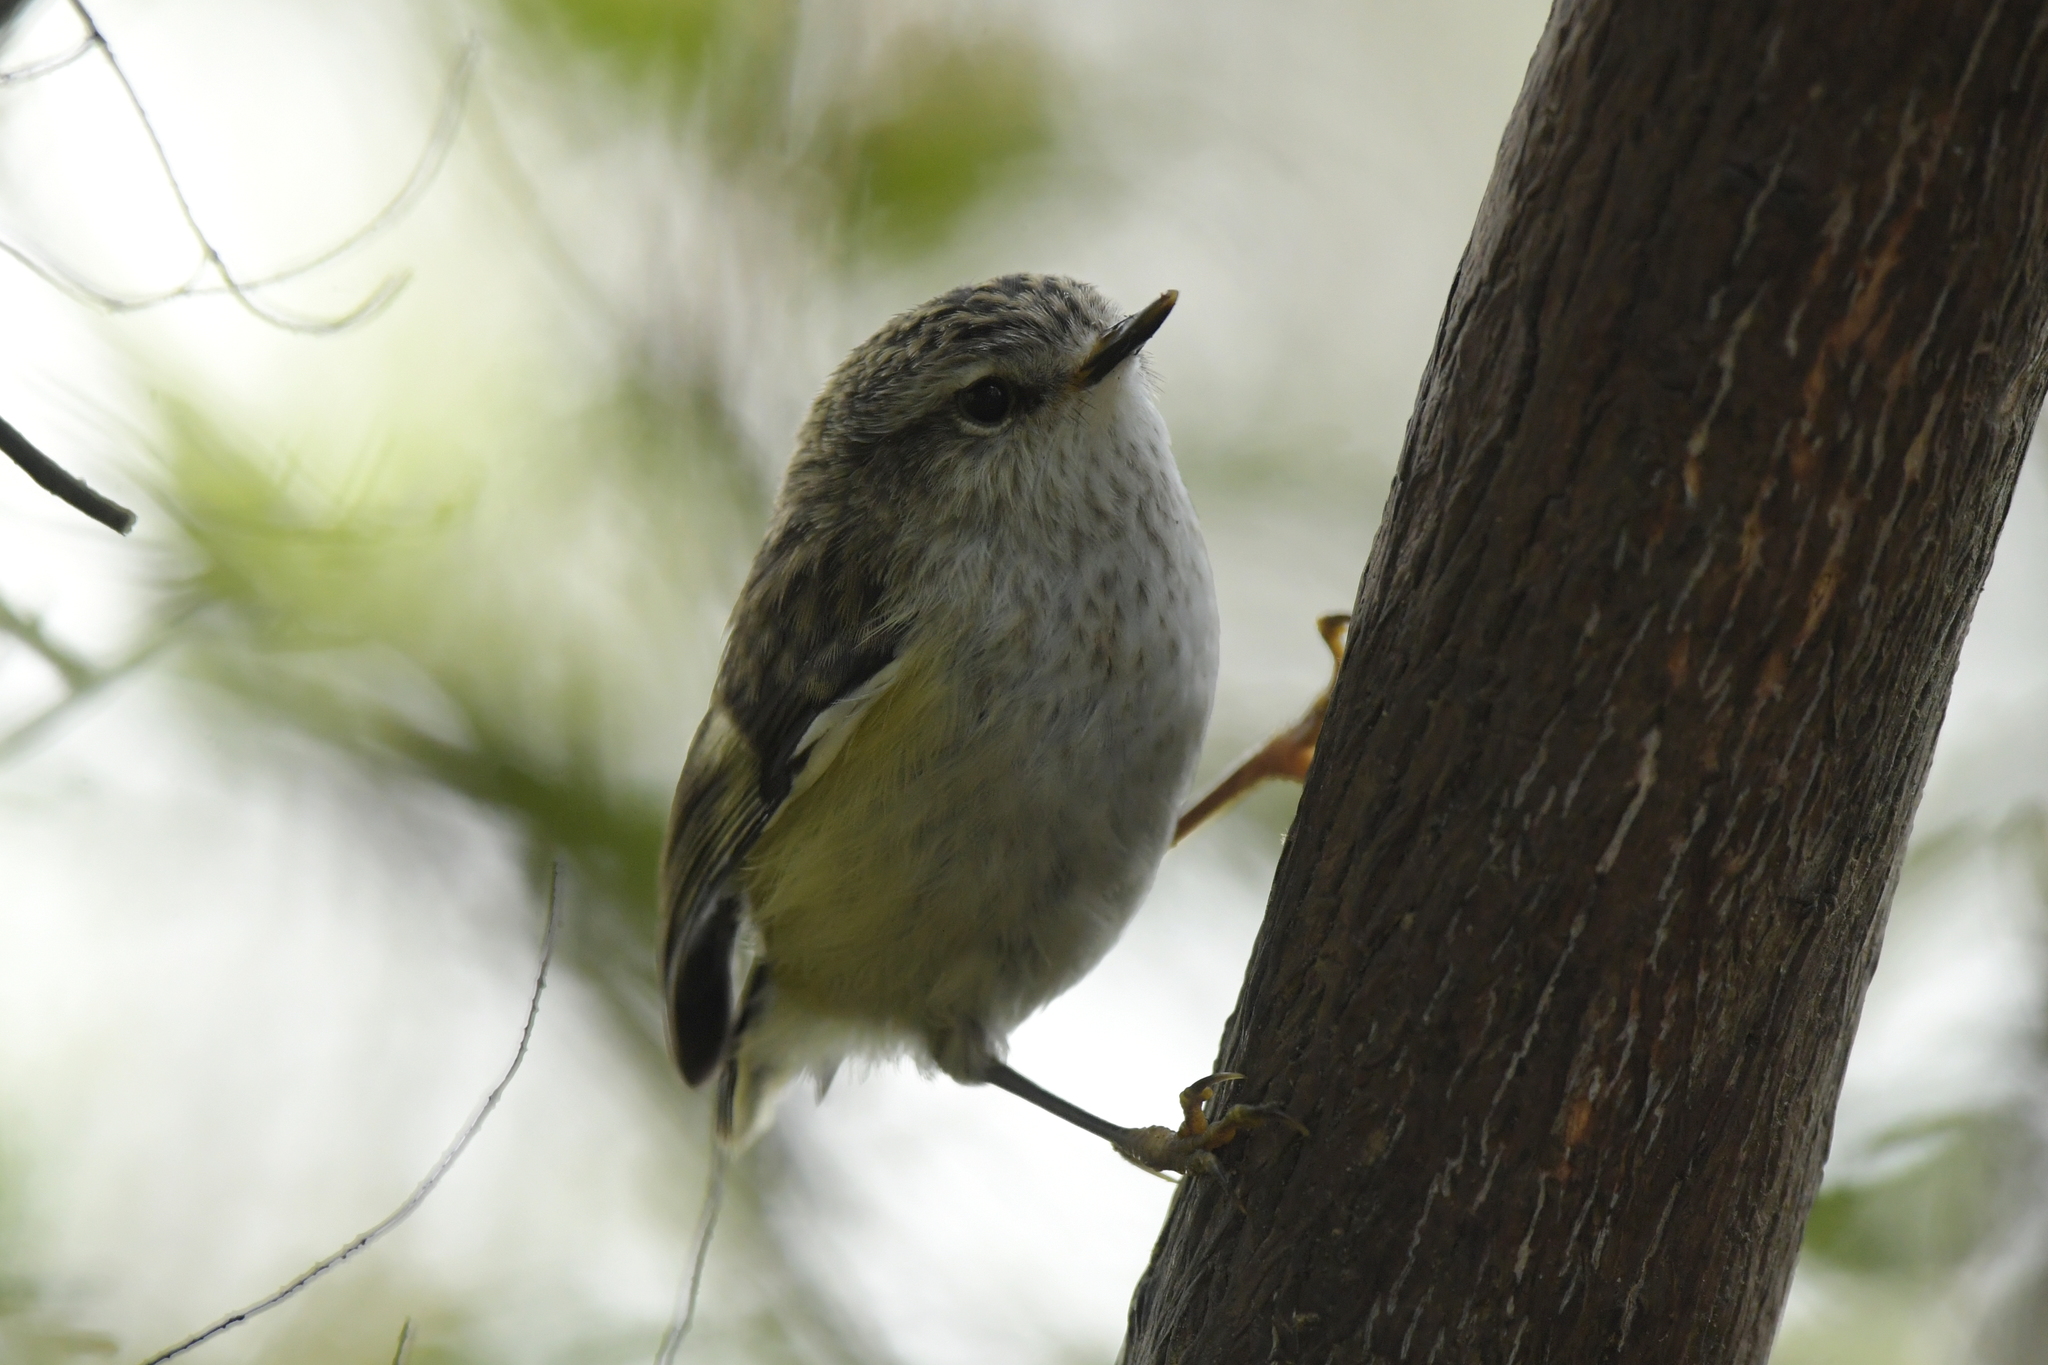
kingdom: Animalia
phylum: Chordata
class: Aves
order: Passeriformes
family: Acanthisittidae
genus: Acanthisitta
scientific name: Acanthisitta chloris
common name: Rifleman
